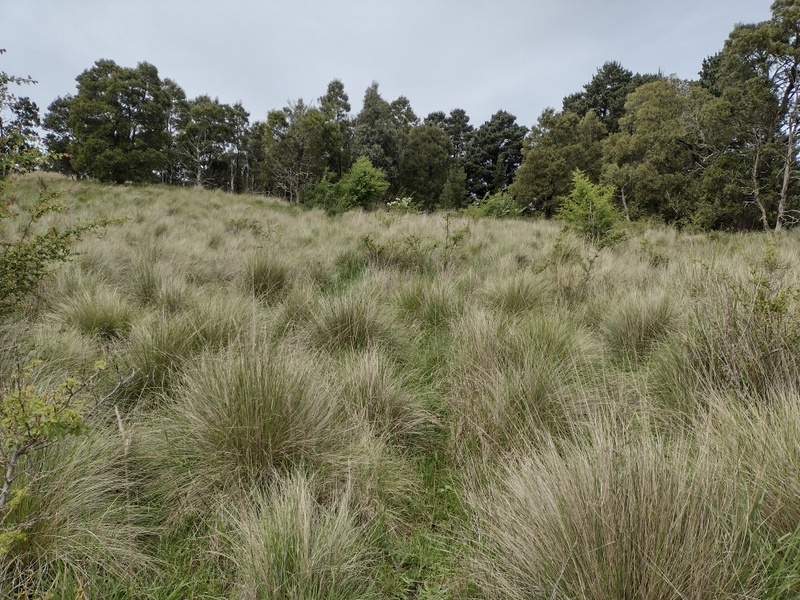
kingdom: Plantae
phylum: Tracheophyta
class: Liliopsida
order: Poales
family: Poaceae
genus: Poa
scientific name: Poa labillardierei
